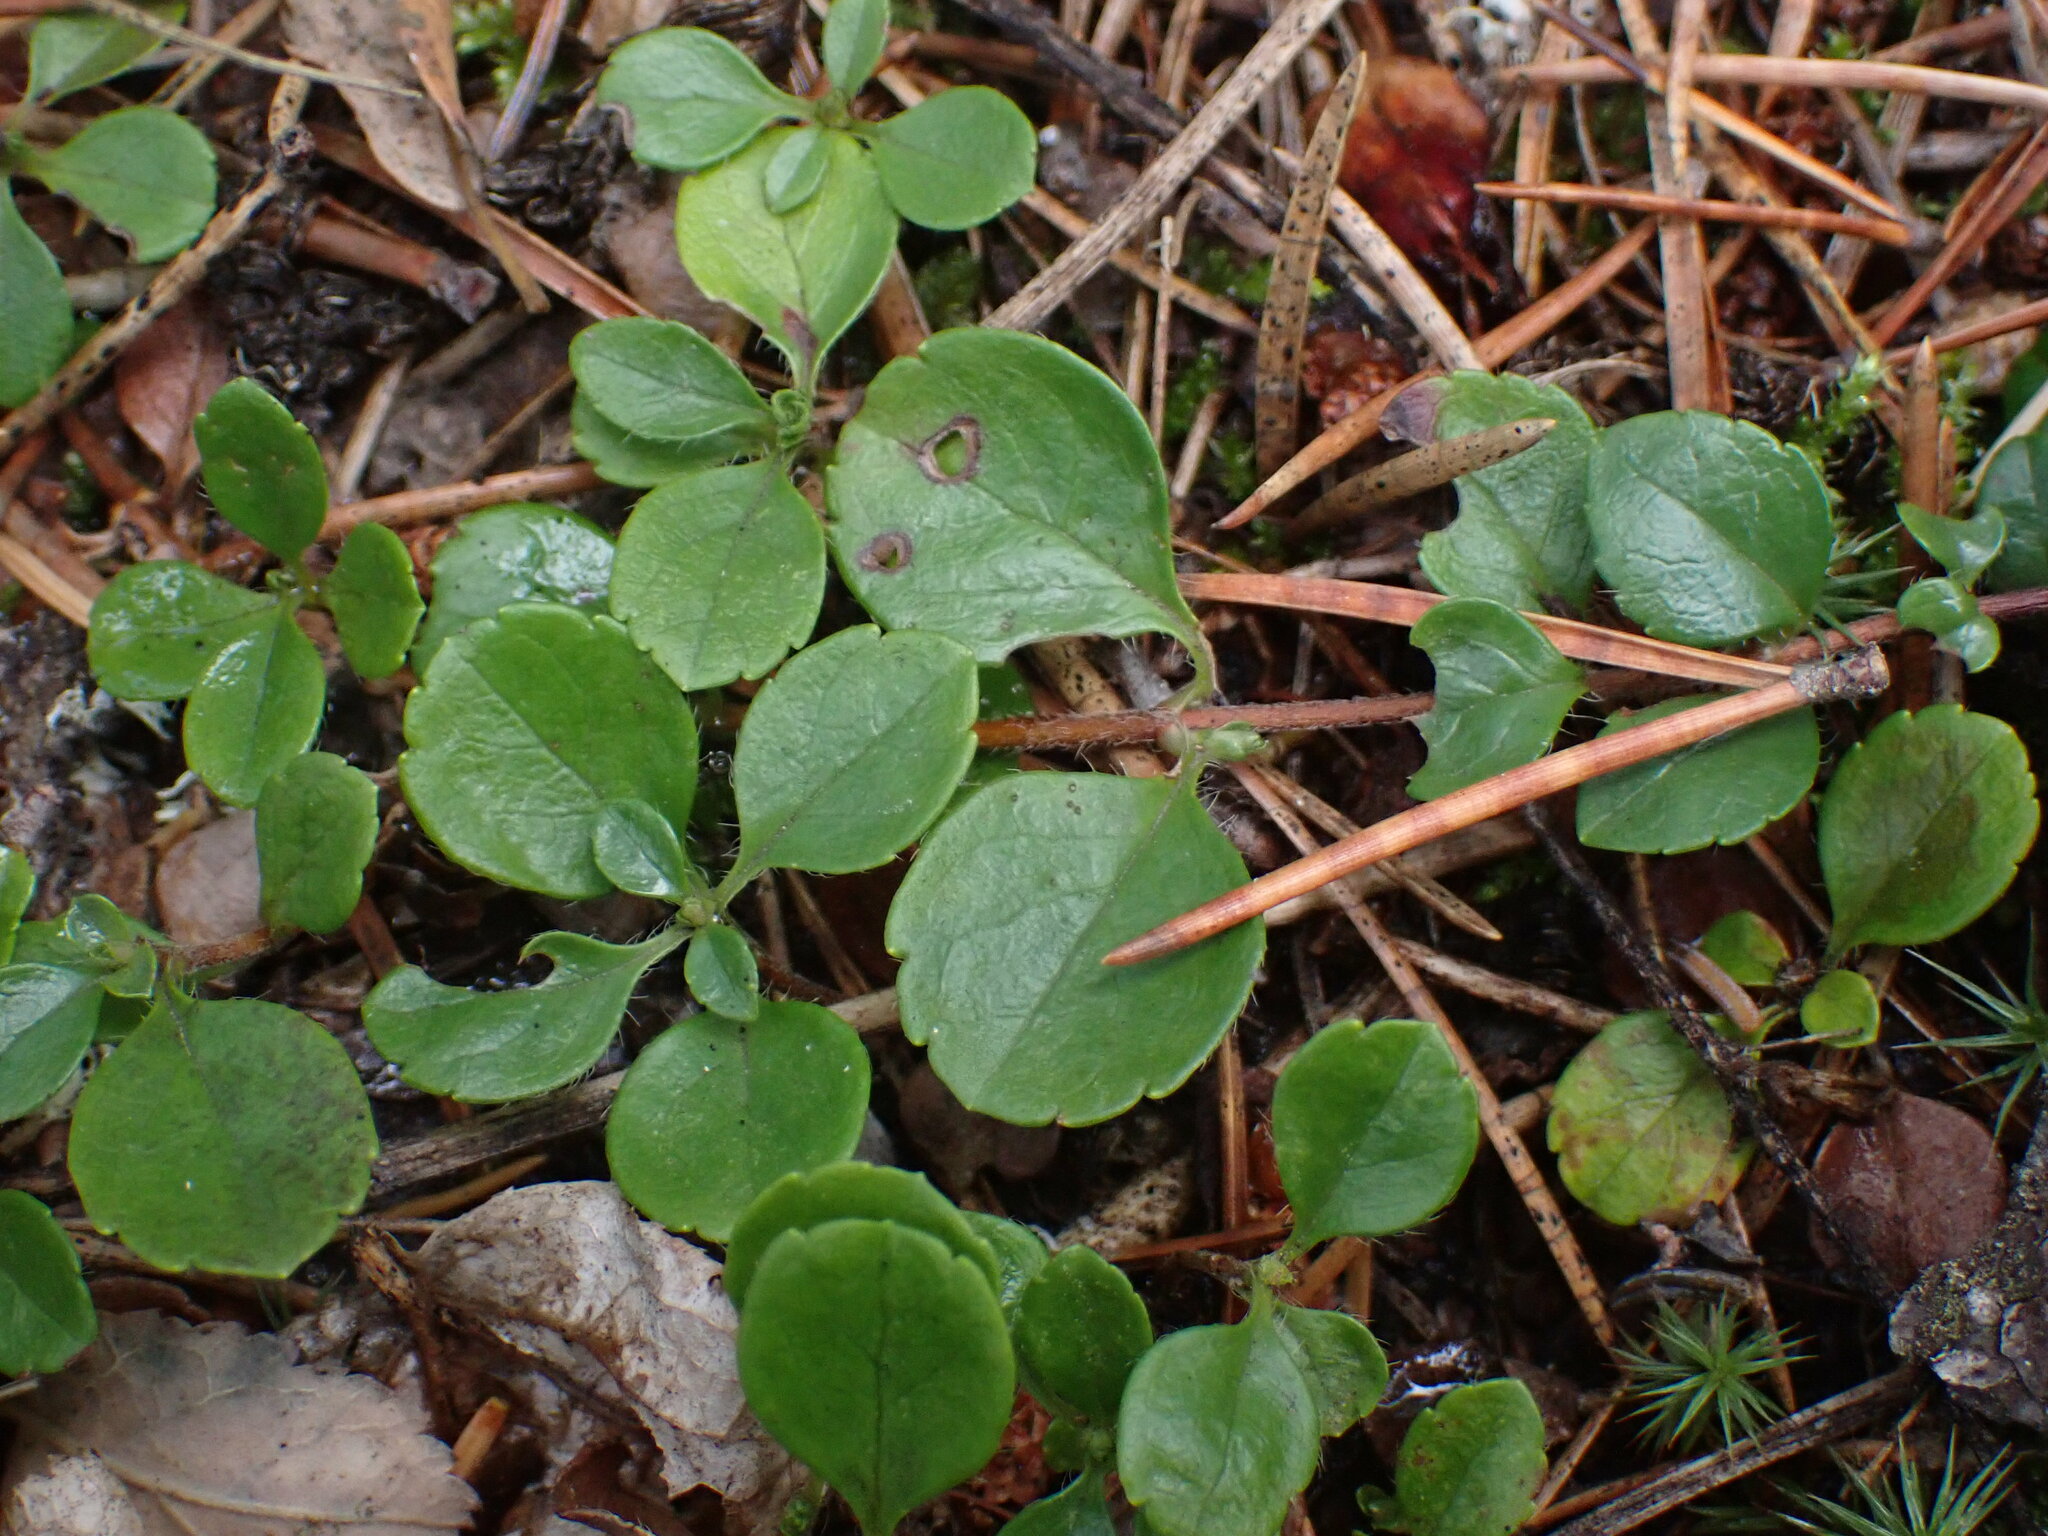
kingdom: Plantae
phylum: Tracheophyta
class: Magnoliopsida
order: Dipsacales
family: Caprifoliaceae
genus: Linnaea
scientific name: Linnaea borealis
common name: Twinflower
